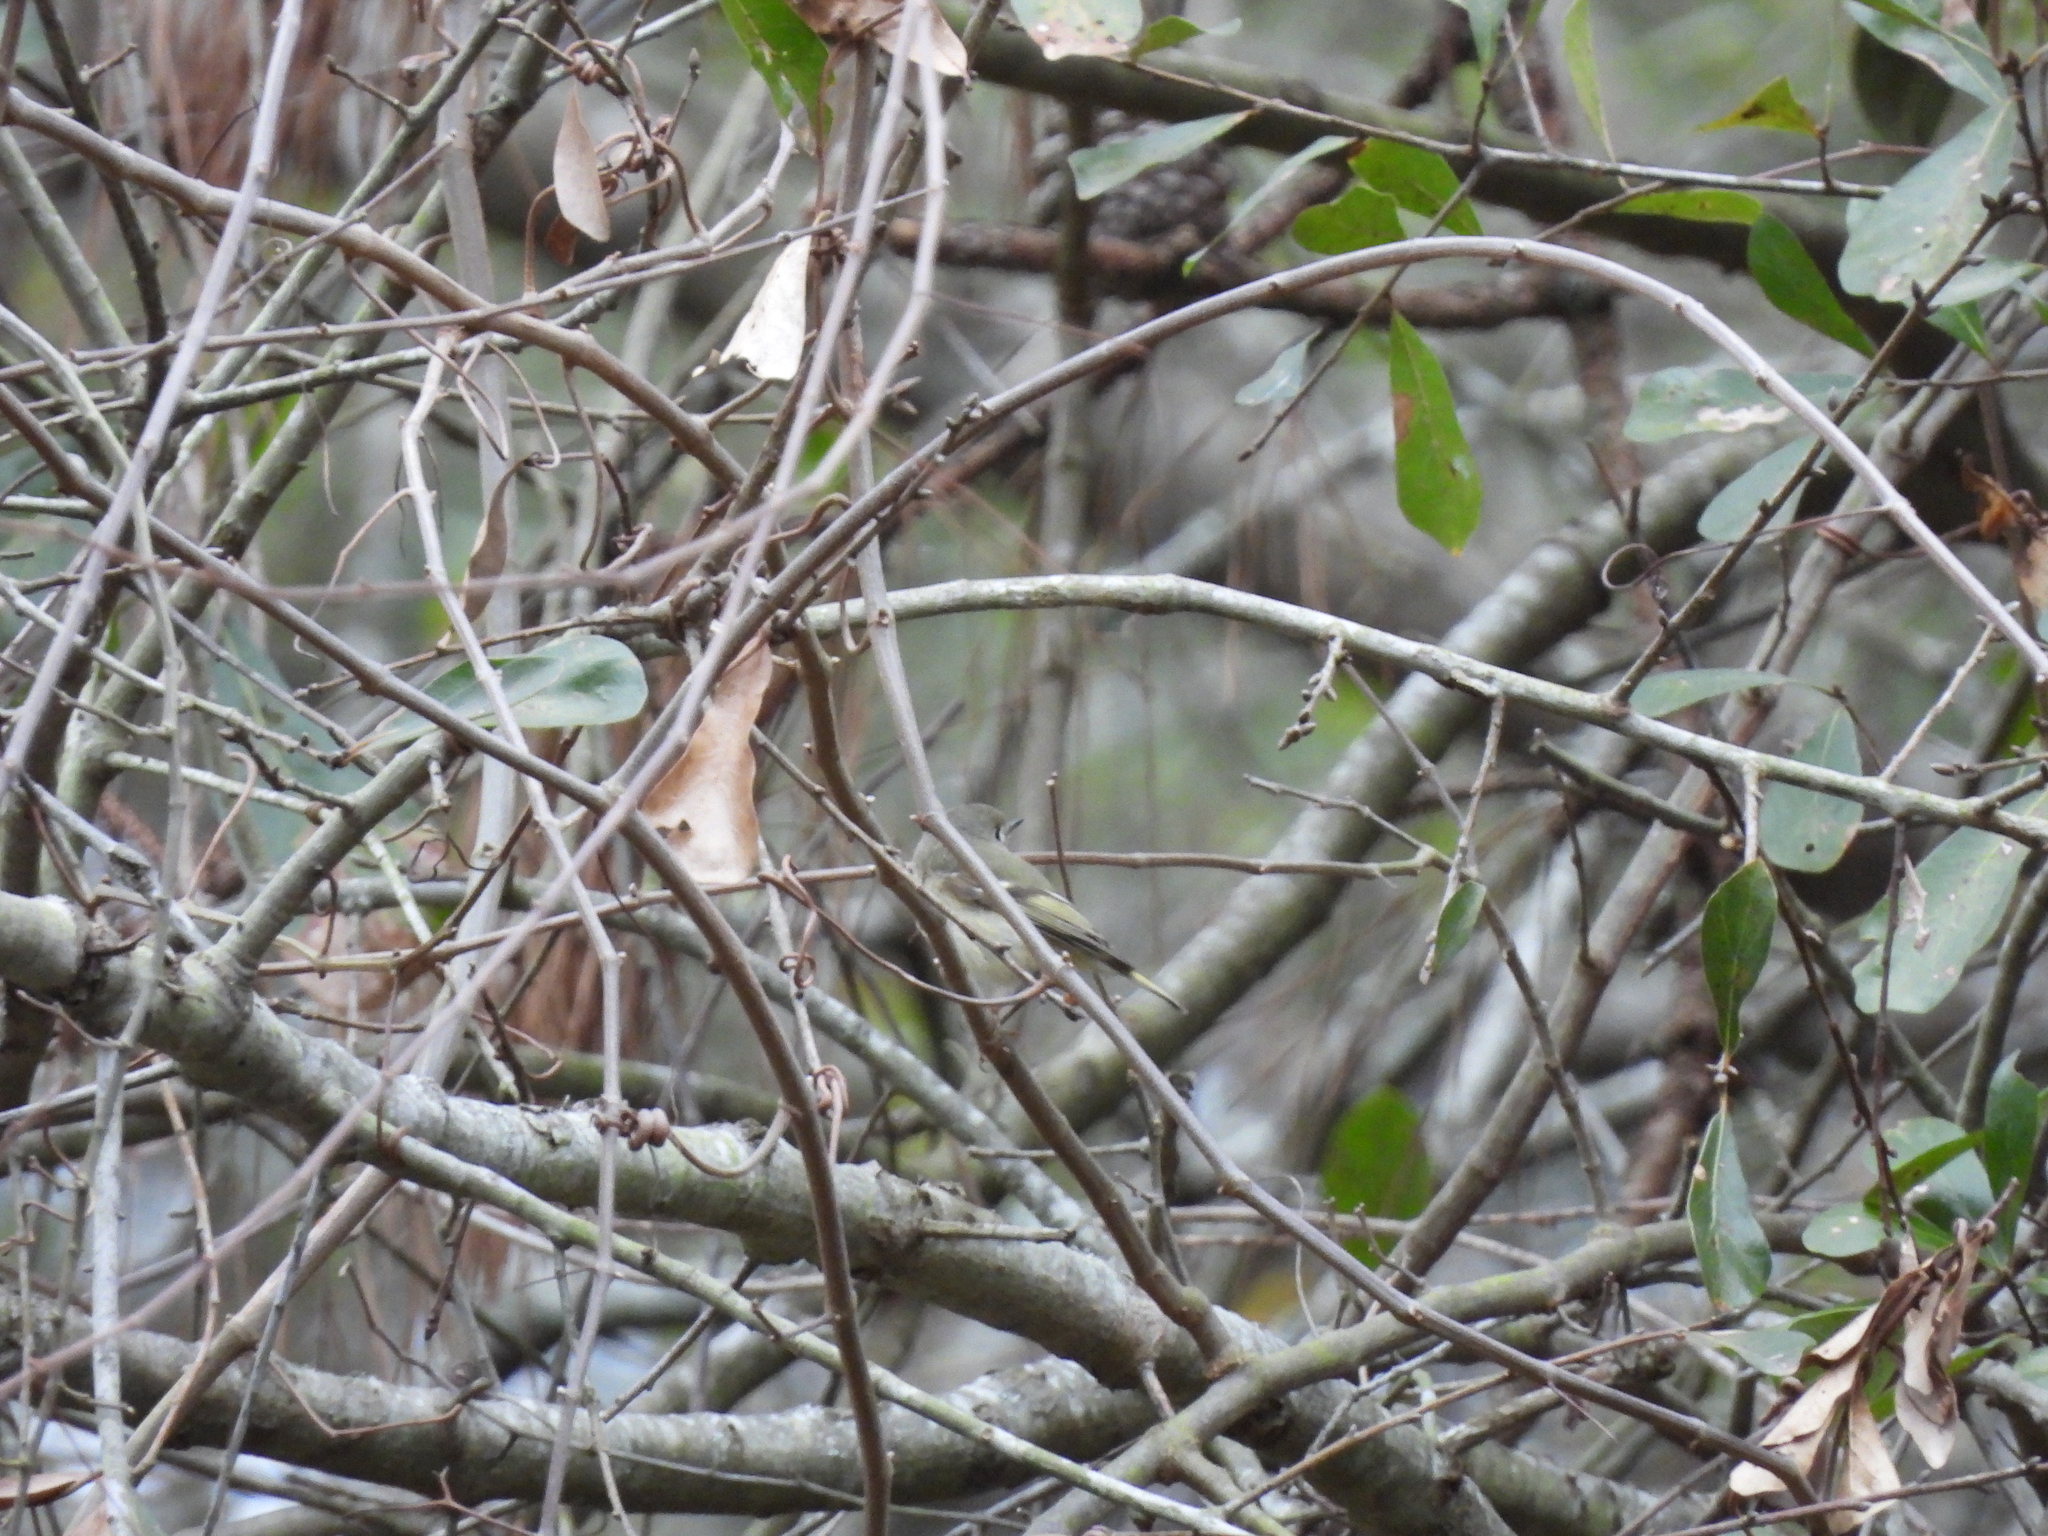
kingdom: Animalia
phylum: Chordata
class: Aves
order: Passeriformes
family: Regulidae
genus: Regulus
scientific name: Regulus calendula
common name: Ruby-crowned kinglet
